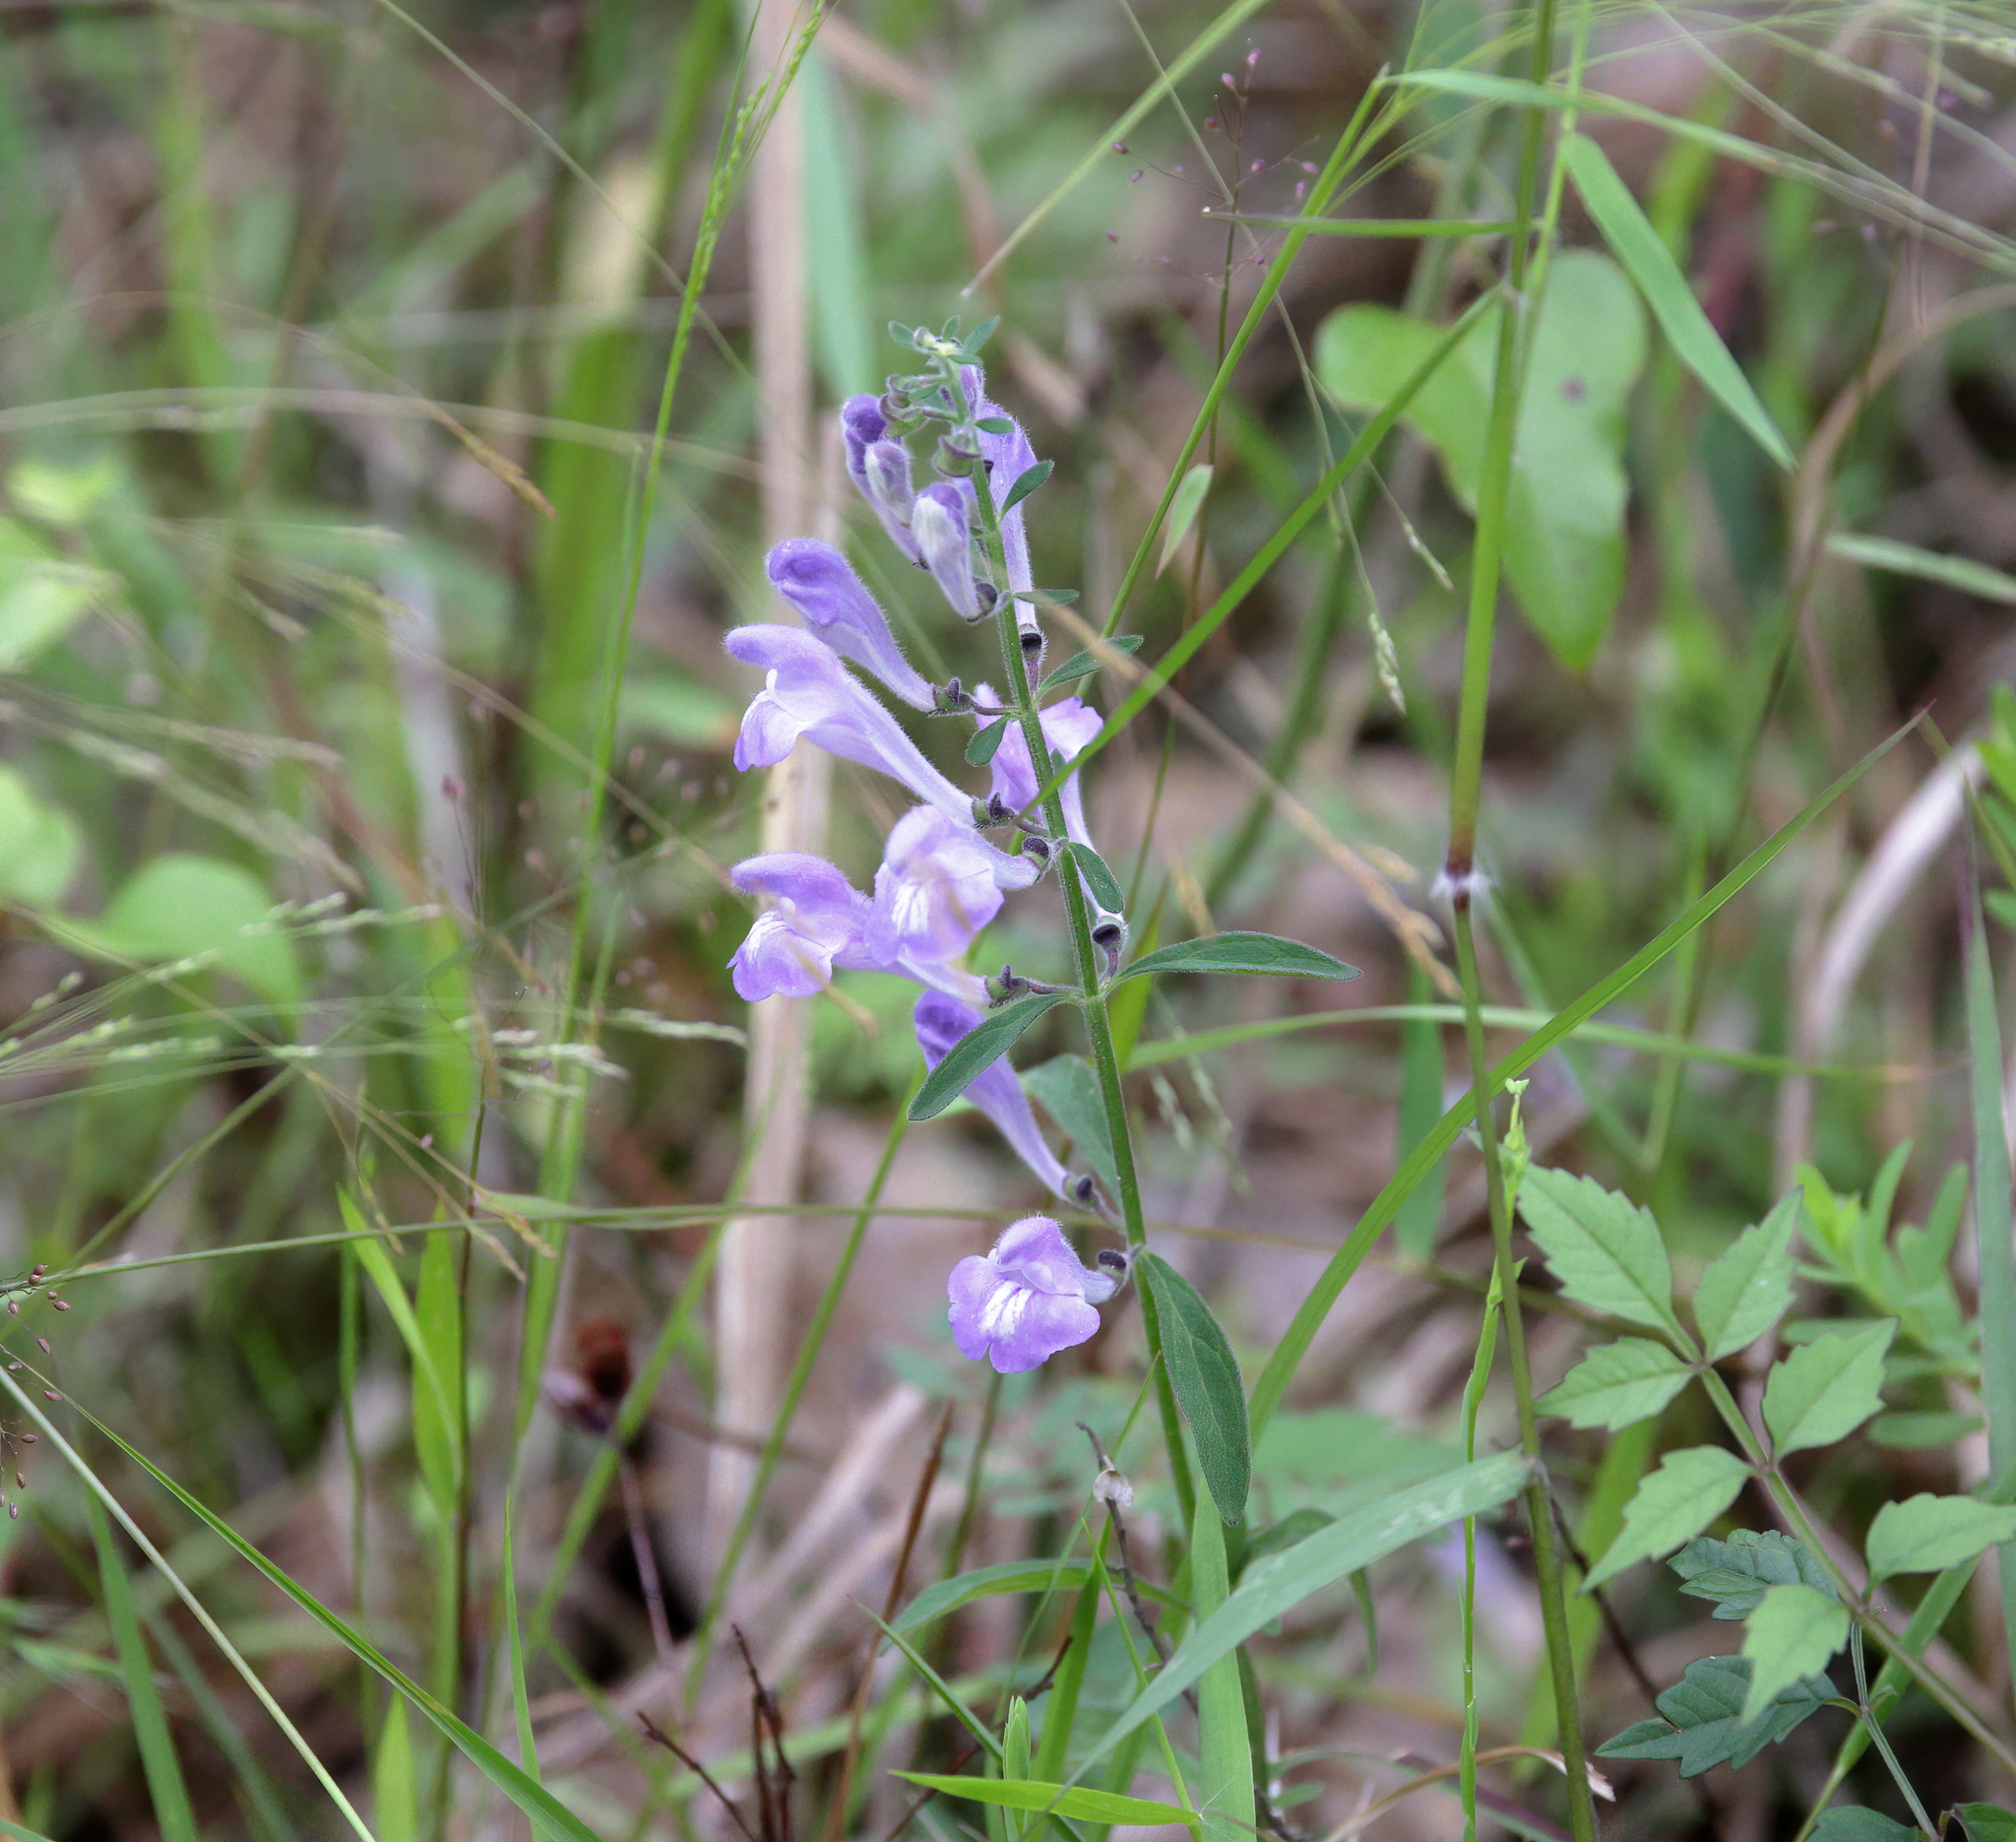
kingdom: Plantae
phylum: Tracheophyta
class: Magnoliopsida
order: Lamiales
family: Lamiaceae
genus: Scutellaria
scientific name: Scutellaria integrifolia
